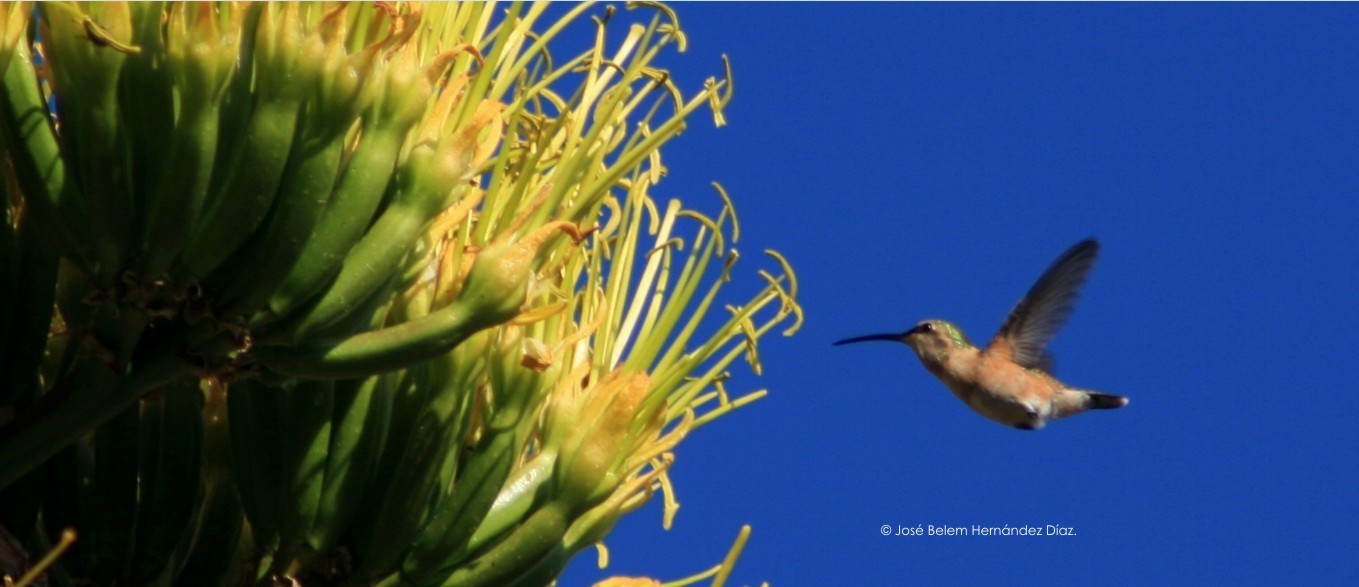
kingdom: Animalia
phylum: Chordata
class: Aves
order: Apodiformes
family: Trochilidae
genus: Calothorax
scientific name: Calothorax lucifer
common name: Lucifer sheartail
